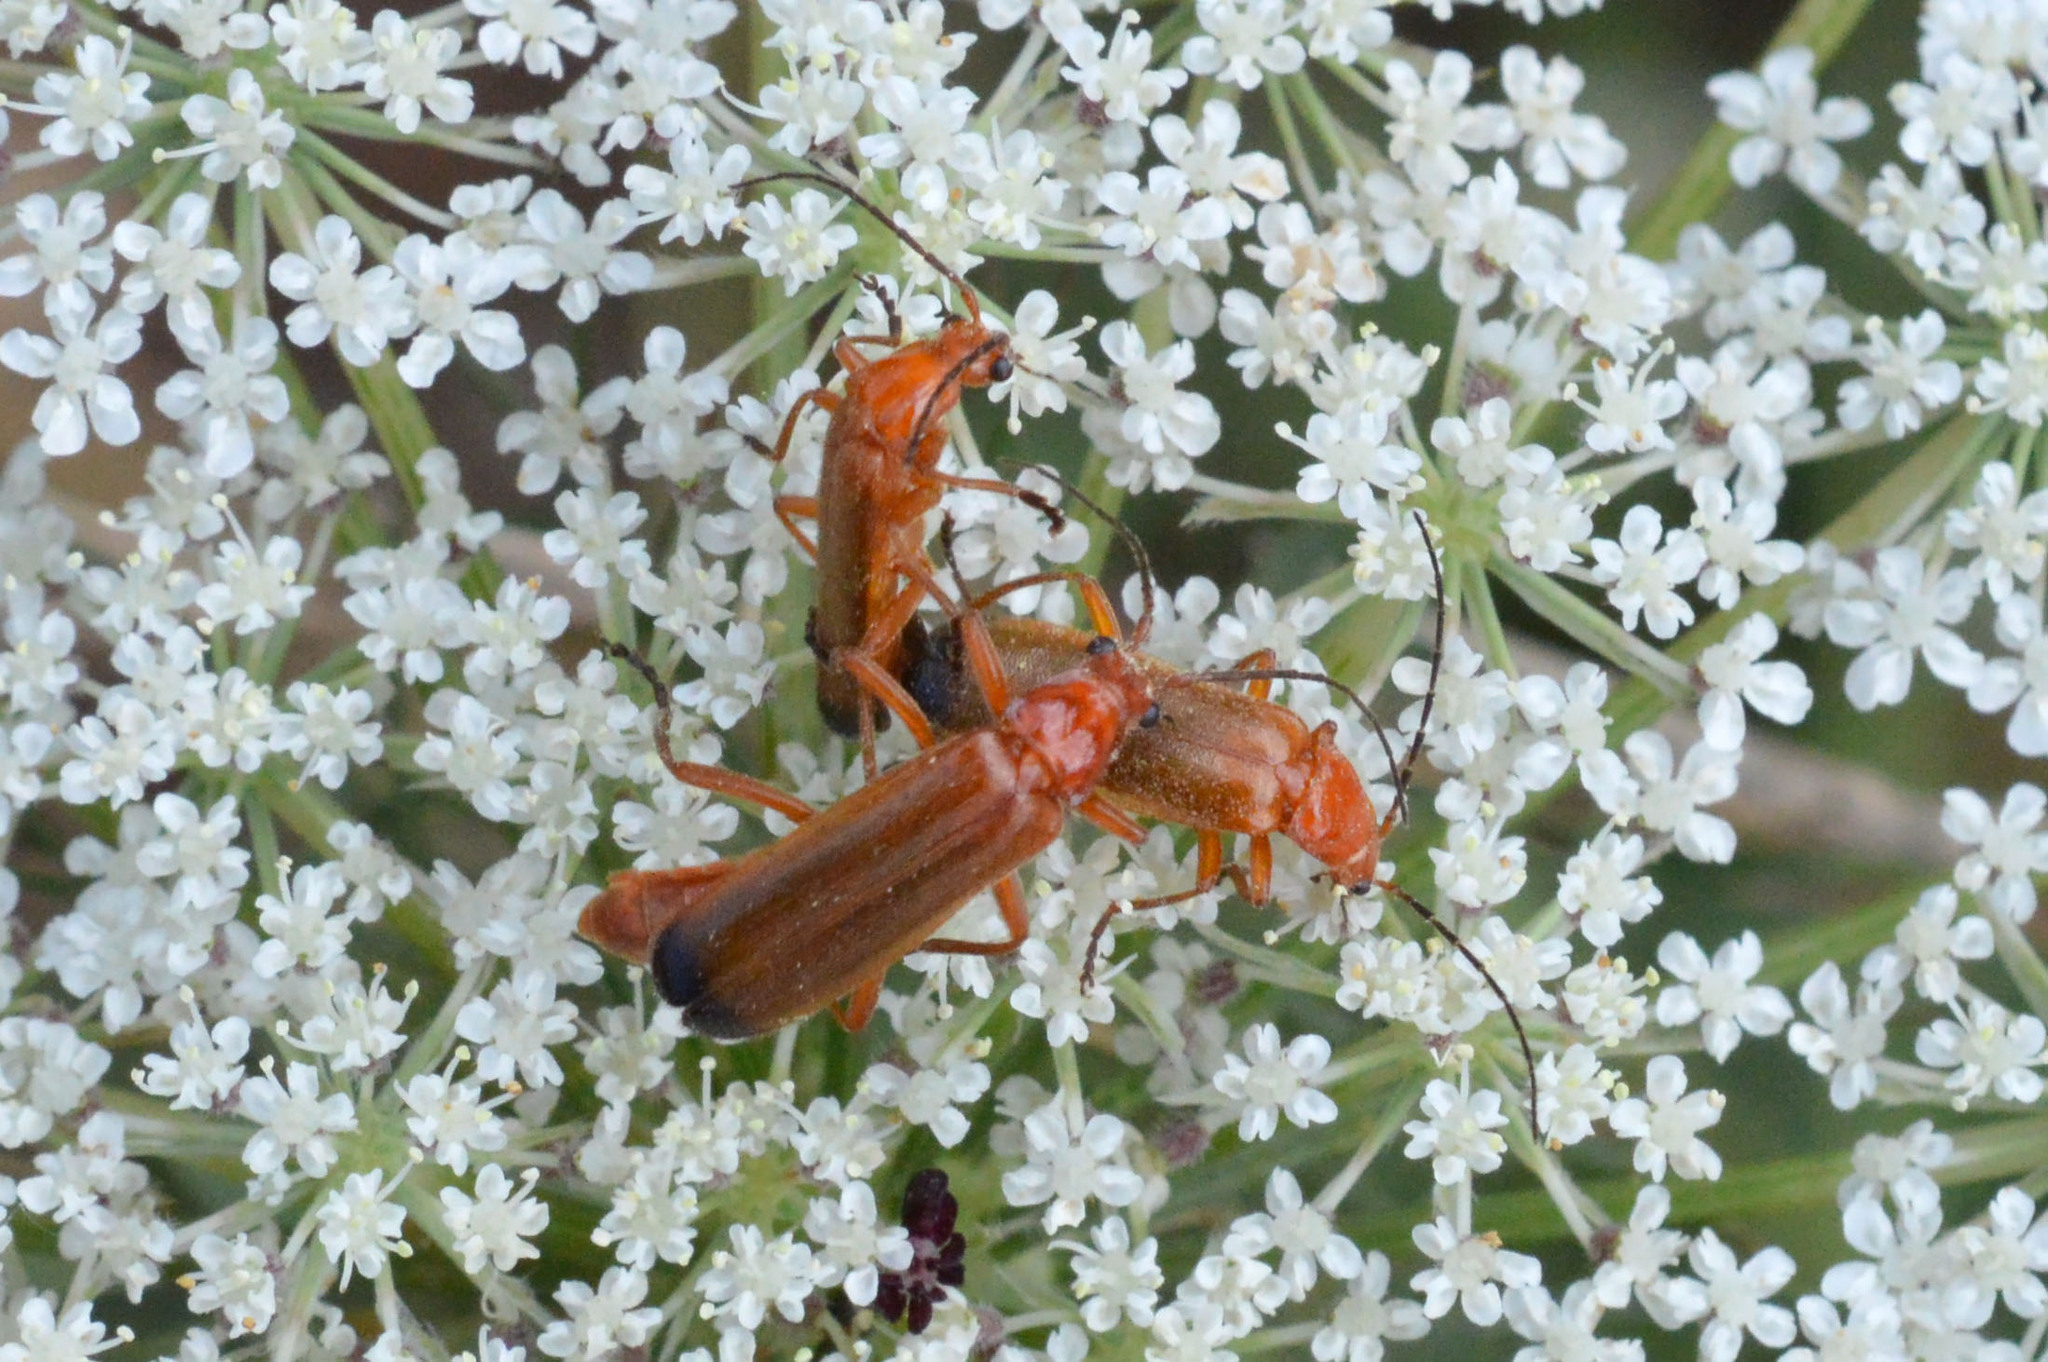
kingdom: Animalia
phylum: Arthropoda
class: Insecta
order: Coleoptera
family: Cantharidae
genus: Rhagonycha
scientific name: Rhagonycha fulva
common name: Common red soldier beetle
